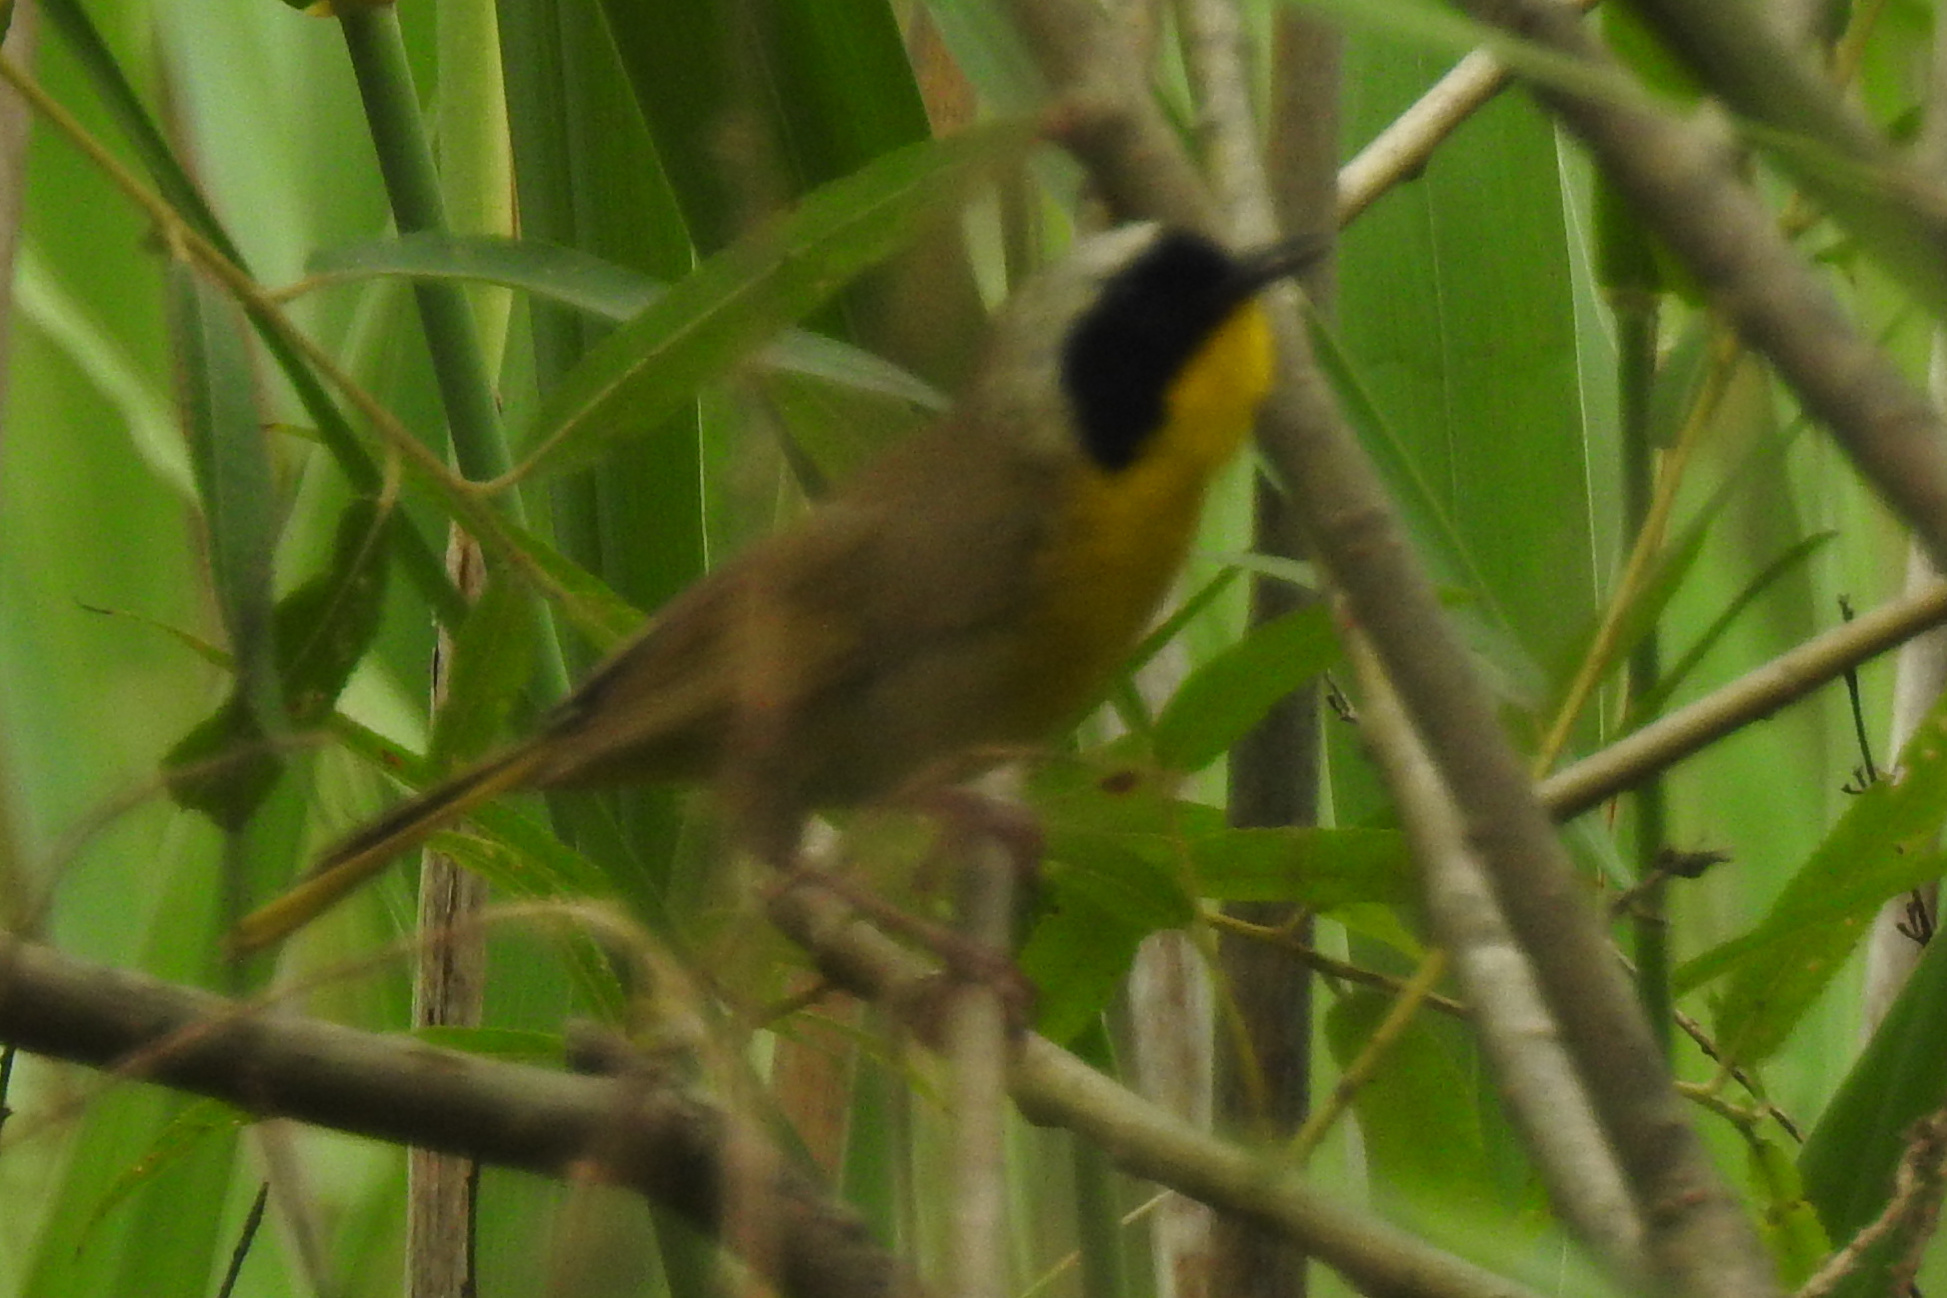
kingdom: Animalia
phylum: Chordata
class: Aves
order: Passeriformes
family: Parulidae
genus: Geothlypis
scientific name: Geothlypis trichas
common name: Common yellowthroat
